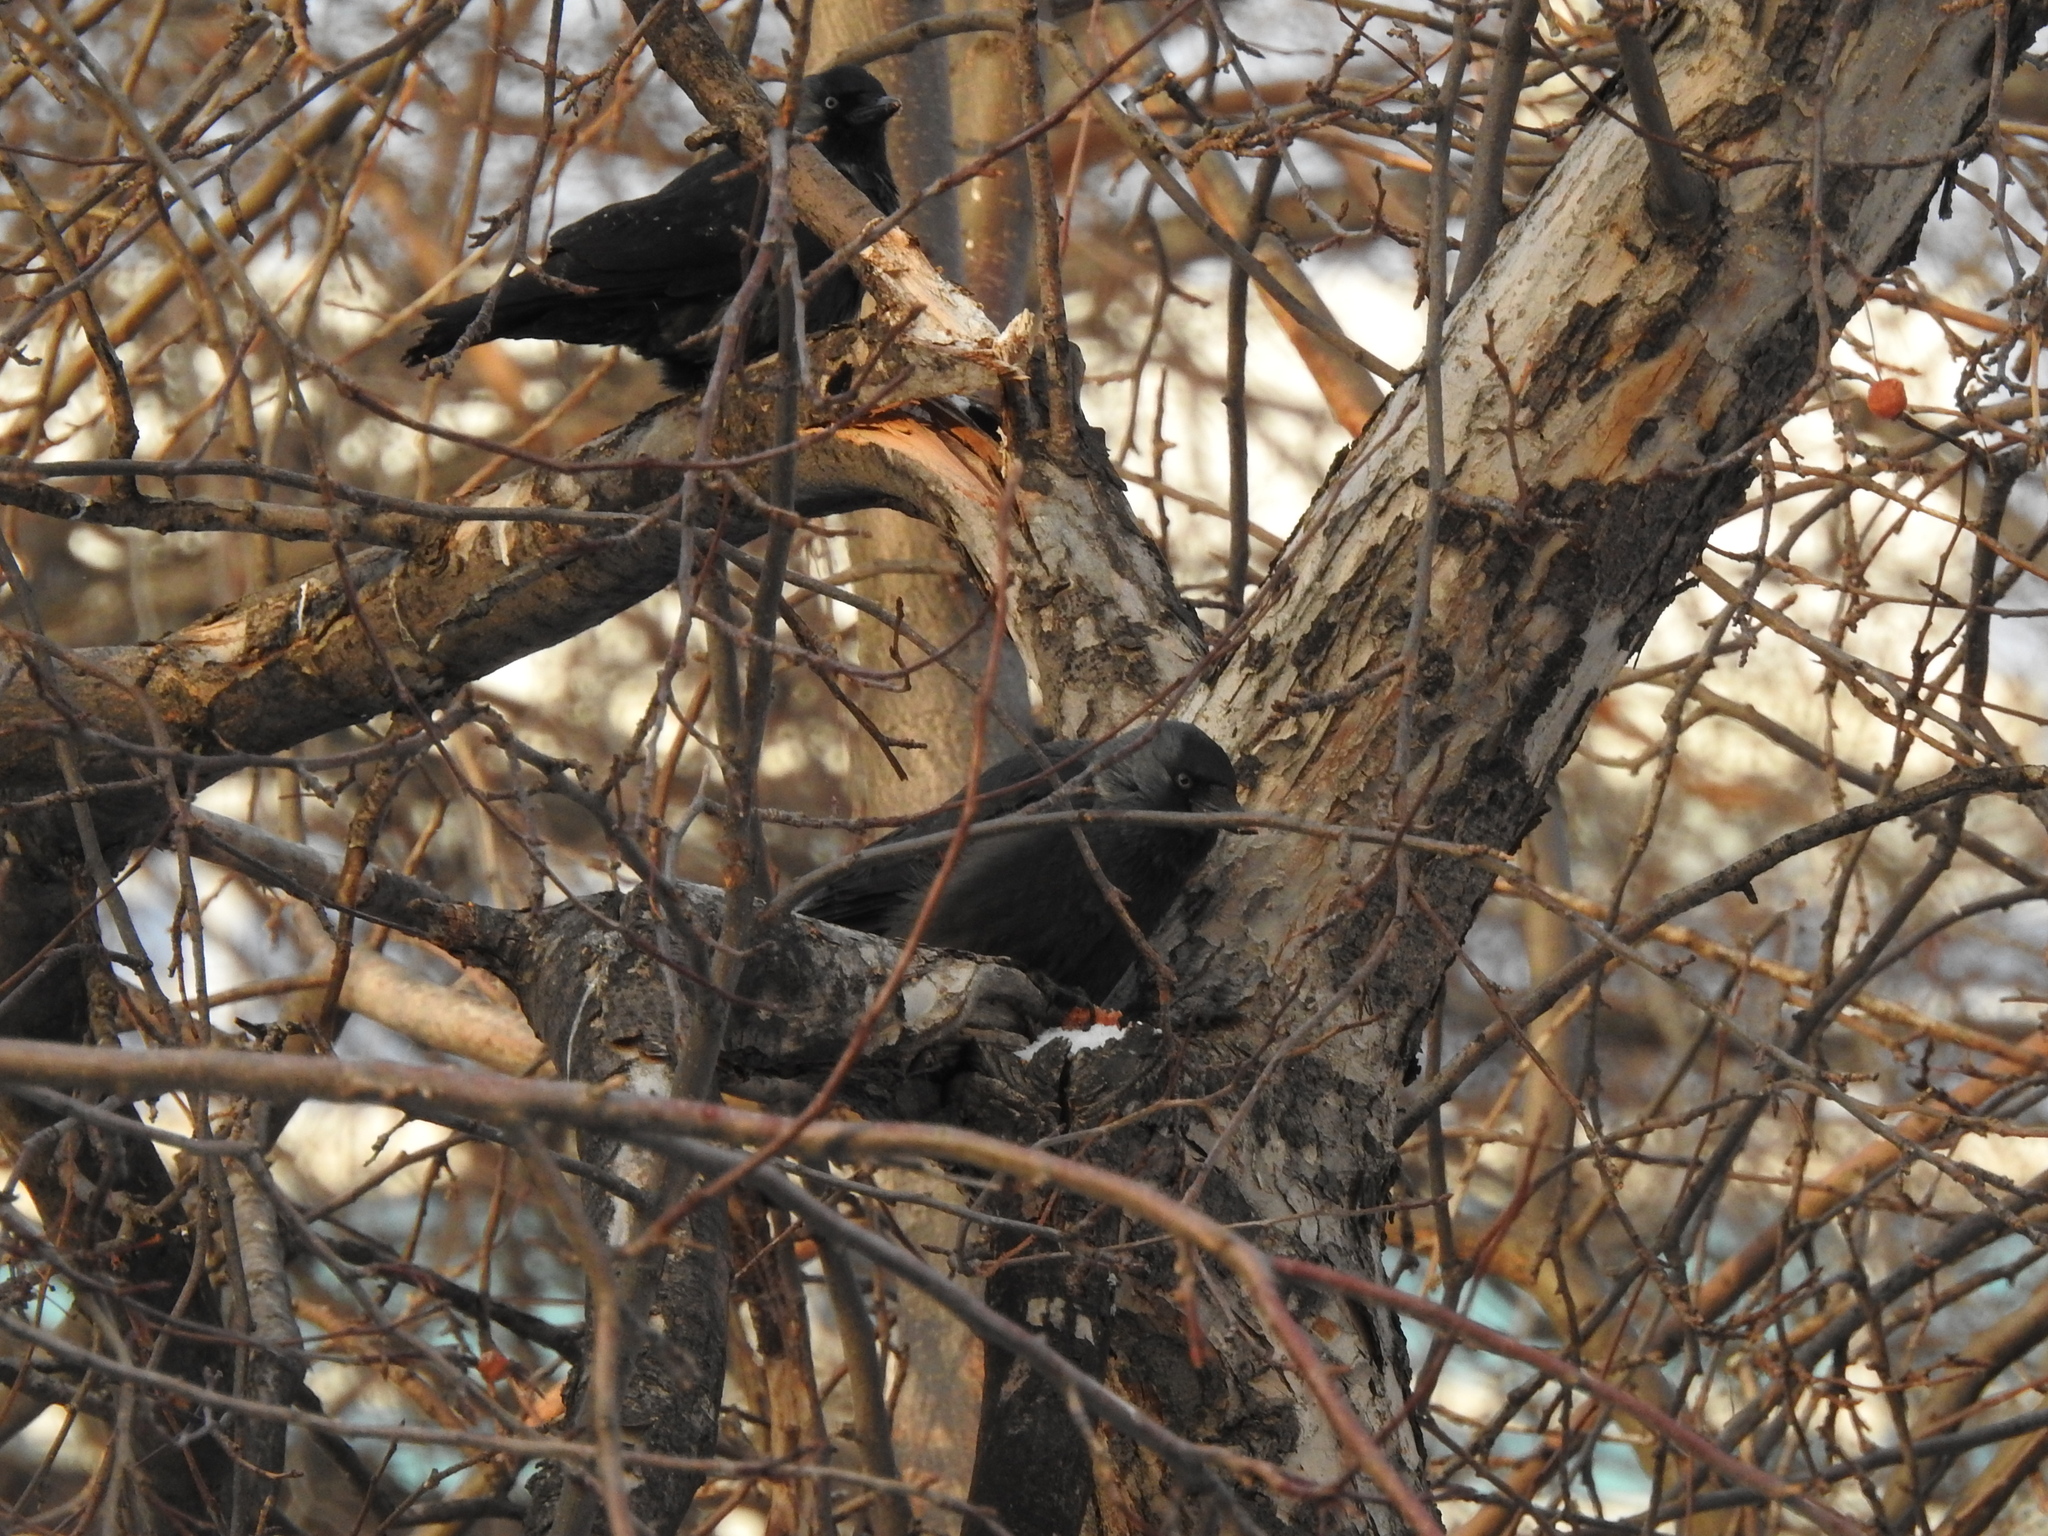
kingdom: Animalia
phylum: Chordata
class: Aves
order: Passeriformes
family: Corvidae
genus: Coloeus
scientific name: Coloeus monedula
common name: Western jackdaw
